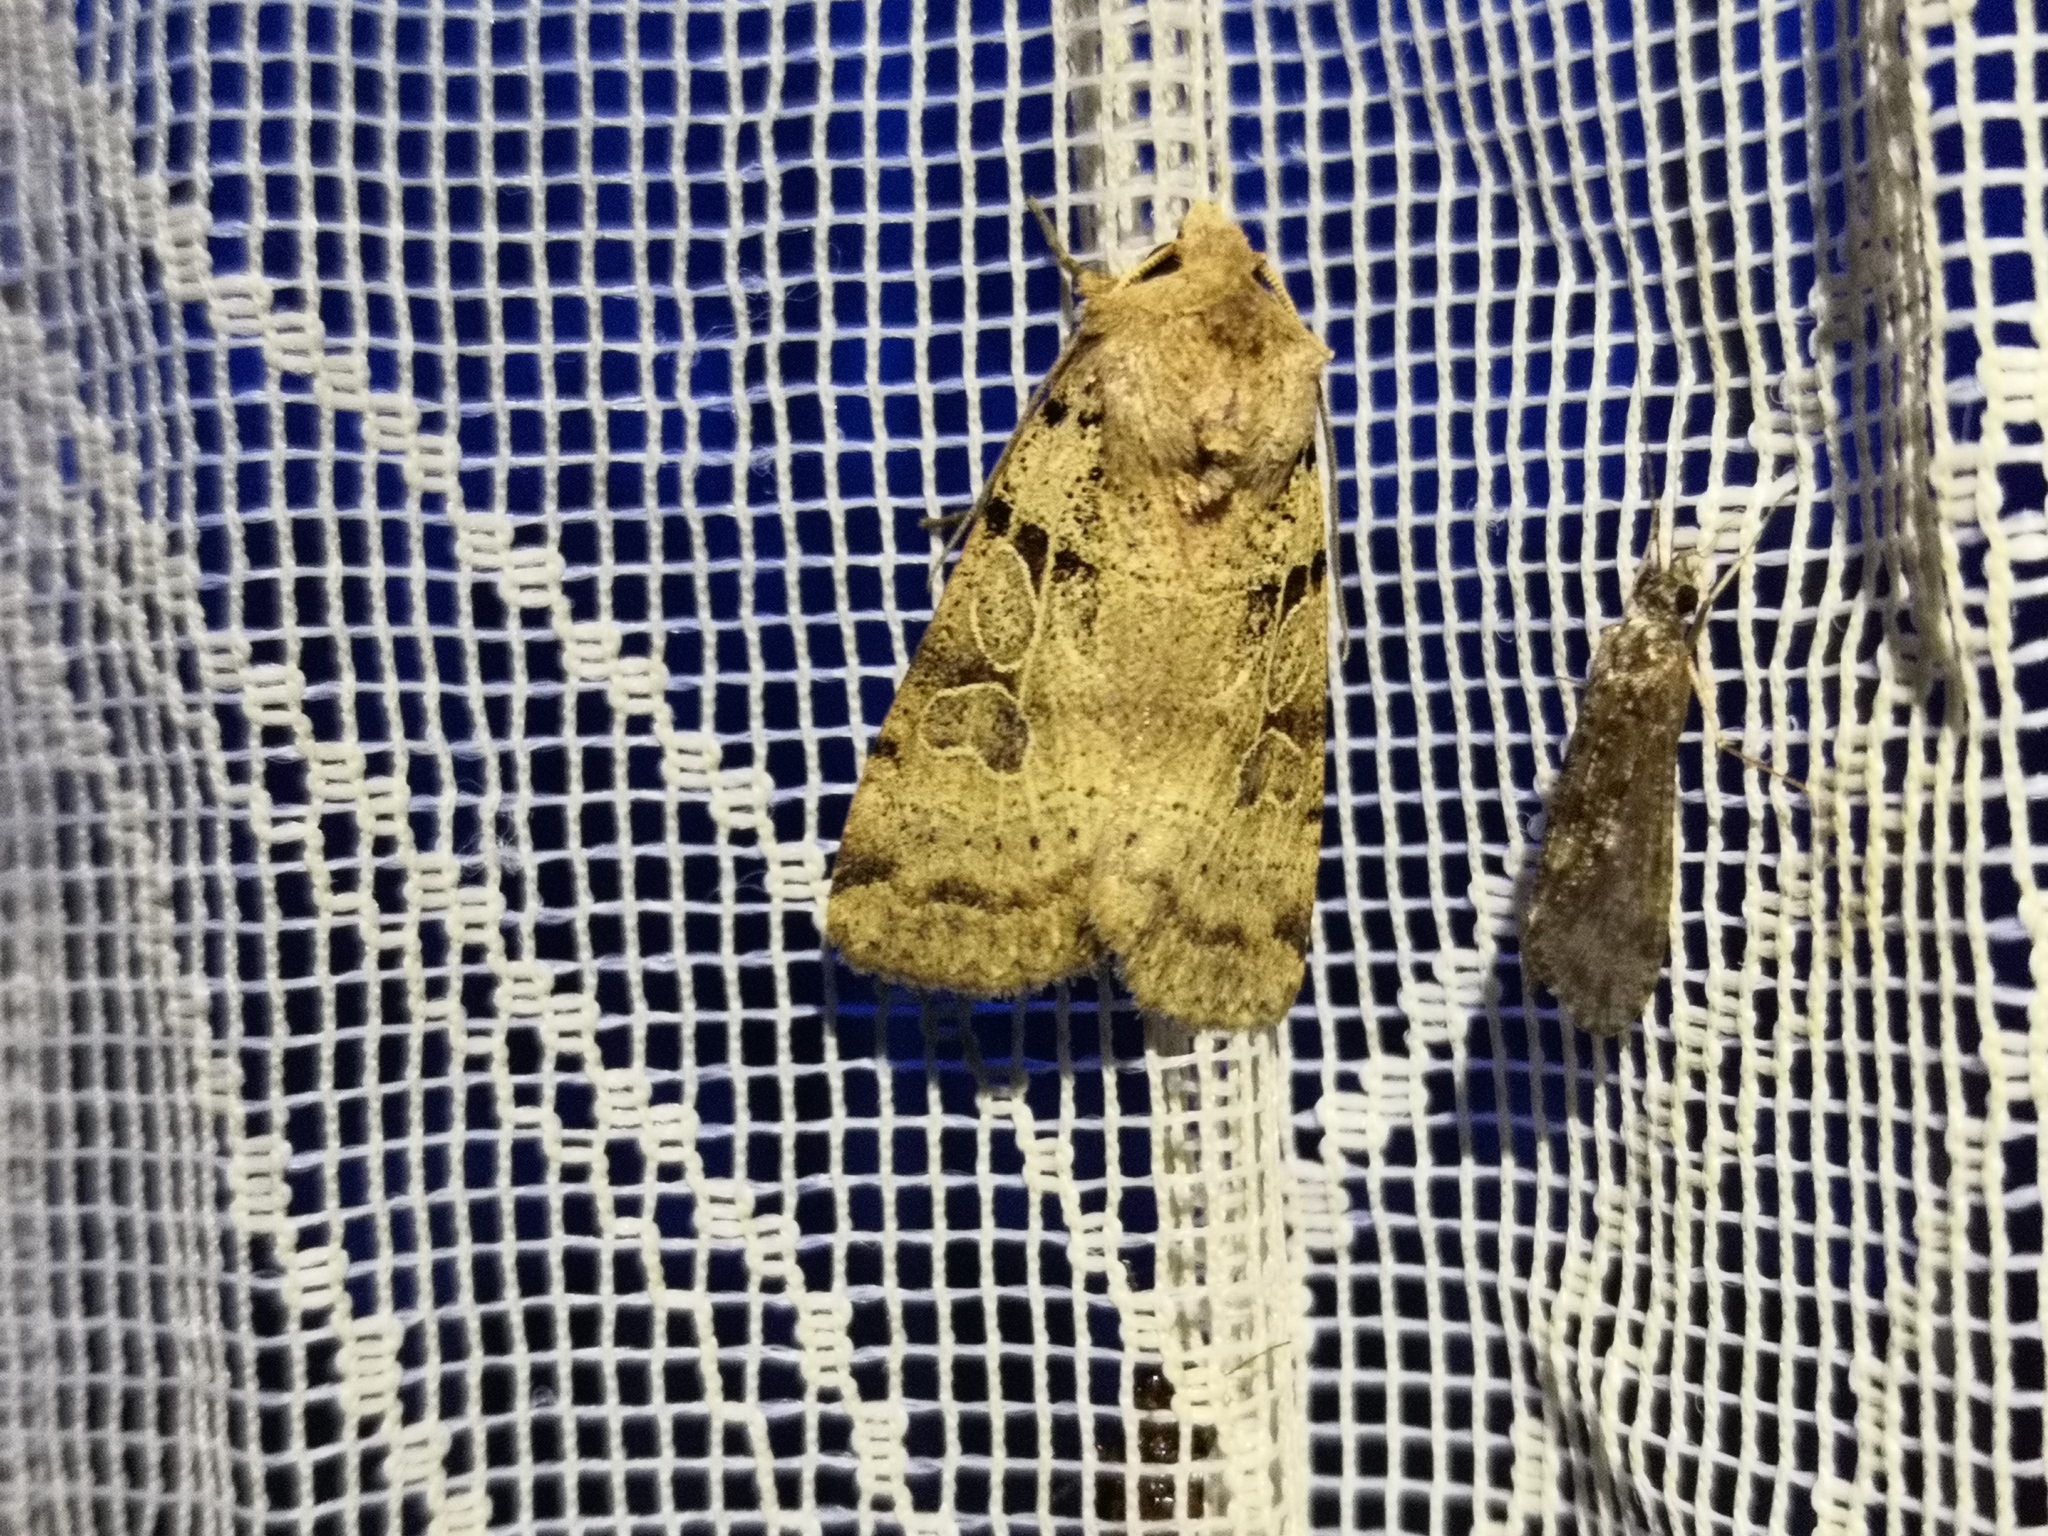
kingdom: Animalia
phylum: Arthropoda
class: Insecta
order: Lepidoptera
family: Noctuidae
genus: Eugnorisma
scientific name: Eugnorisma depuncta
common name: Plain clay
